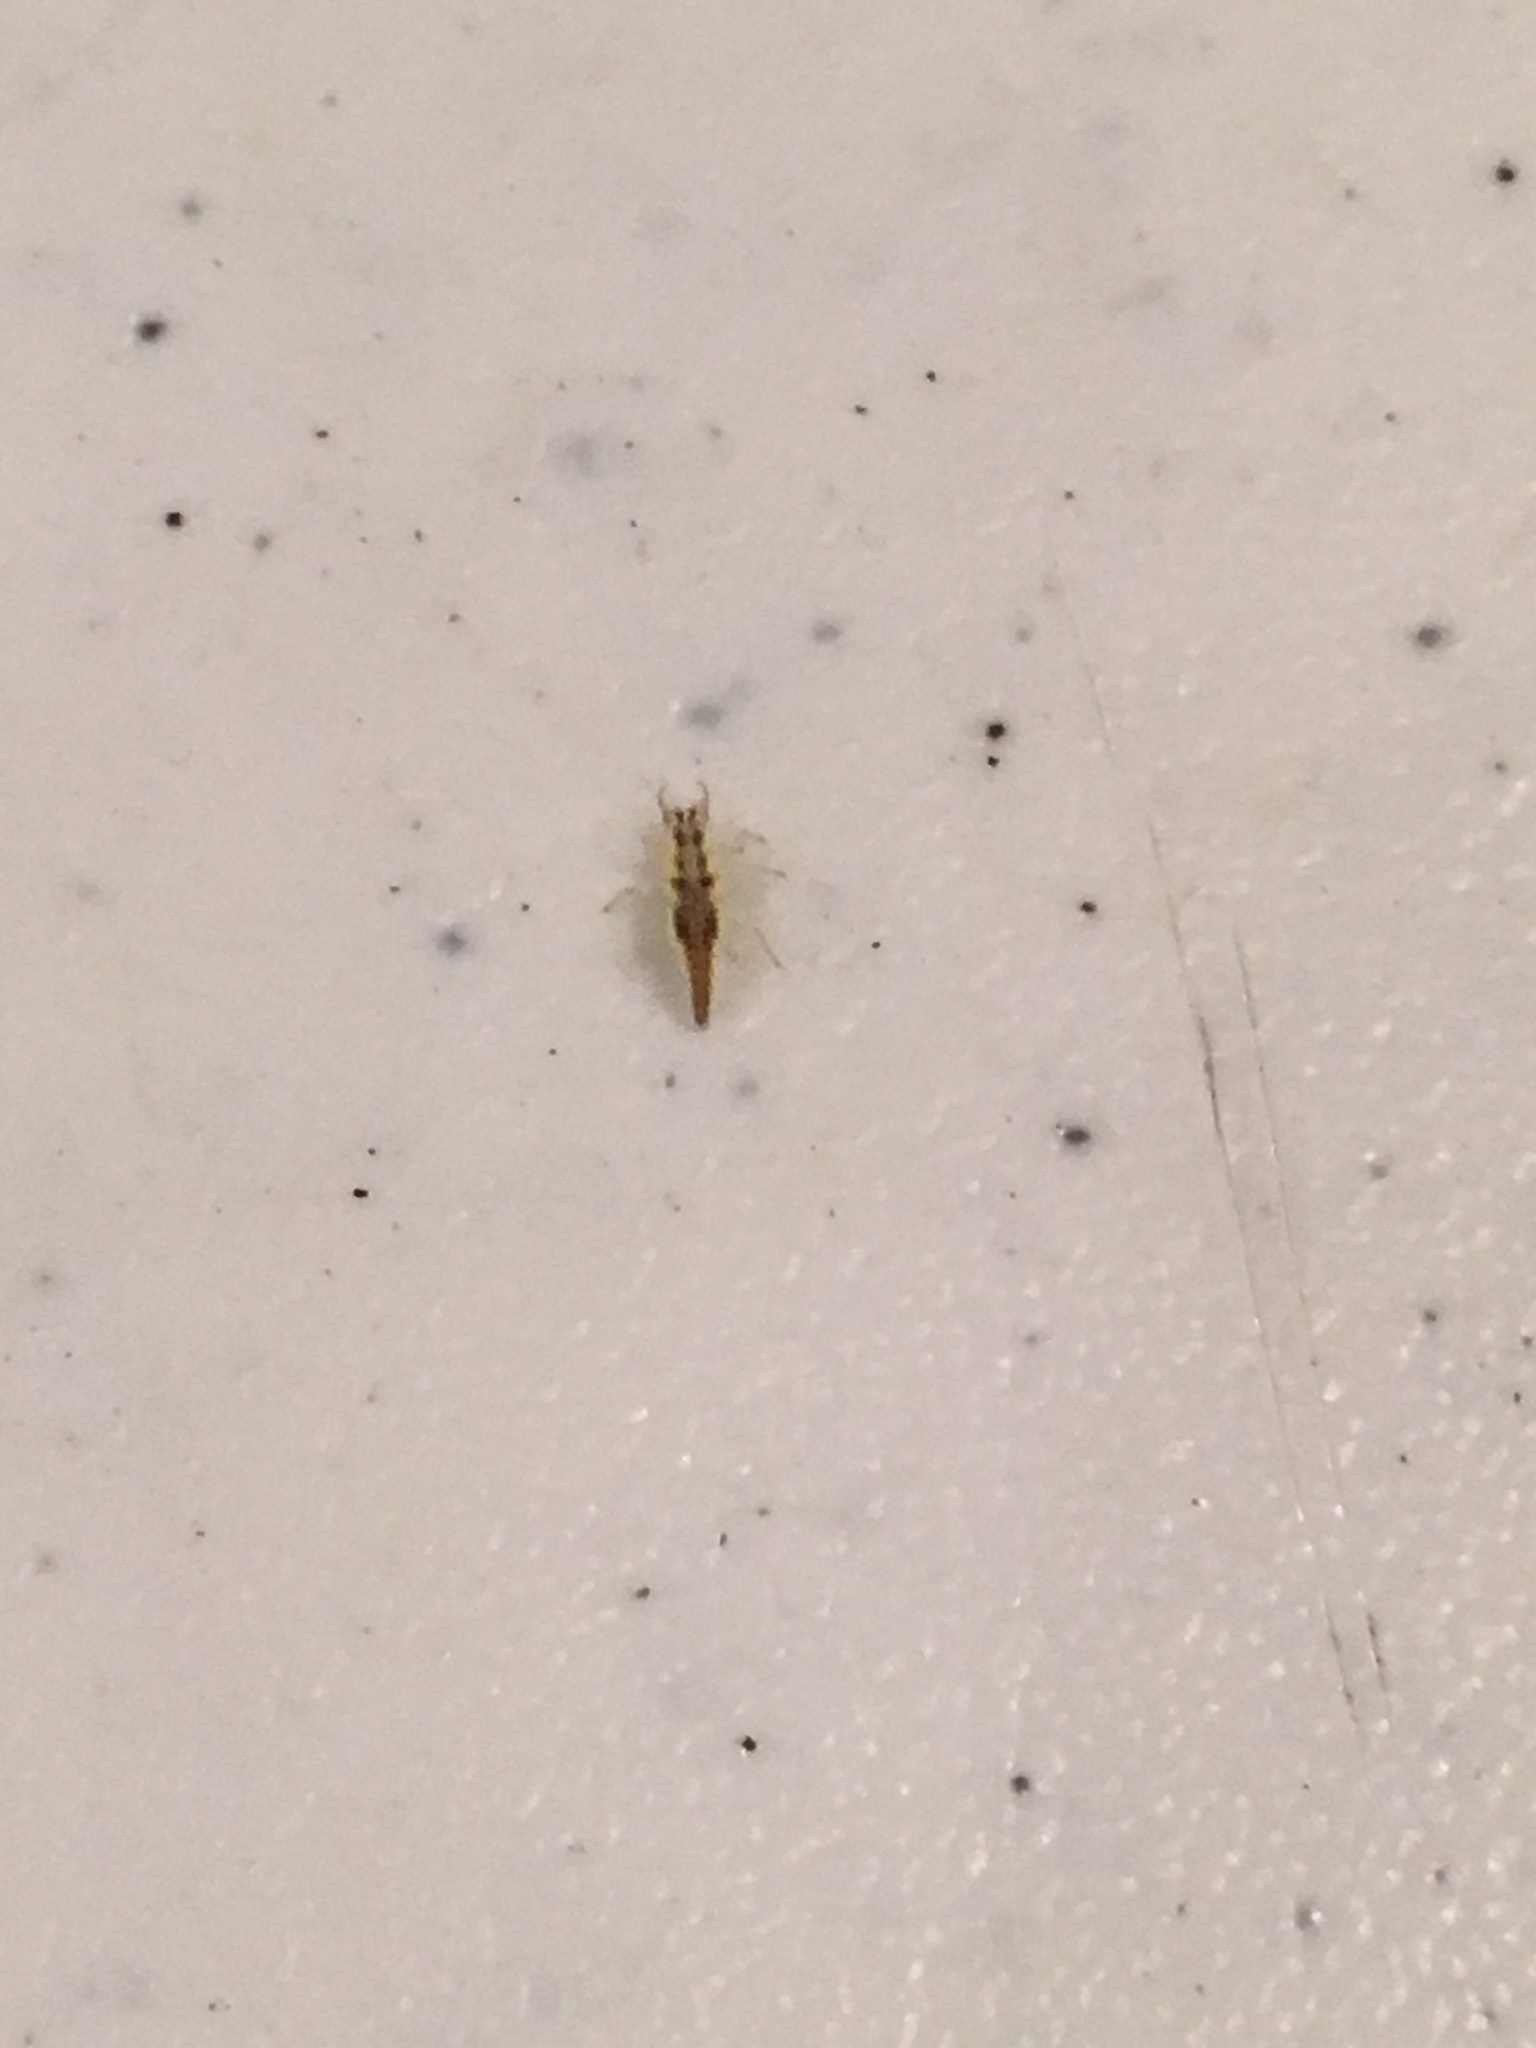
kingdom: Animalia
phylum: Arthropoda
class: Insecta
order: Neuroptera
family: Chrysopidae
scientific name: Chrysopidae
